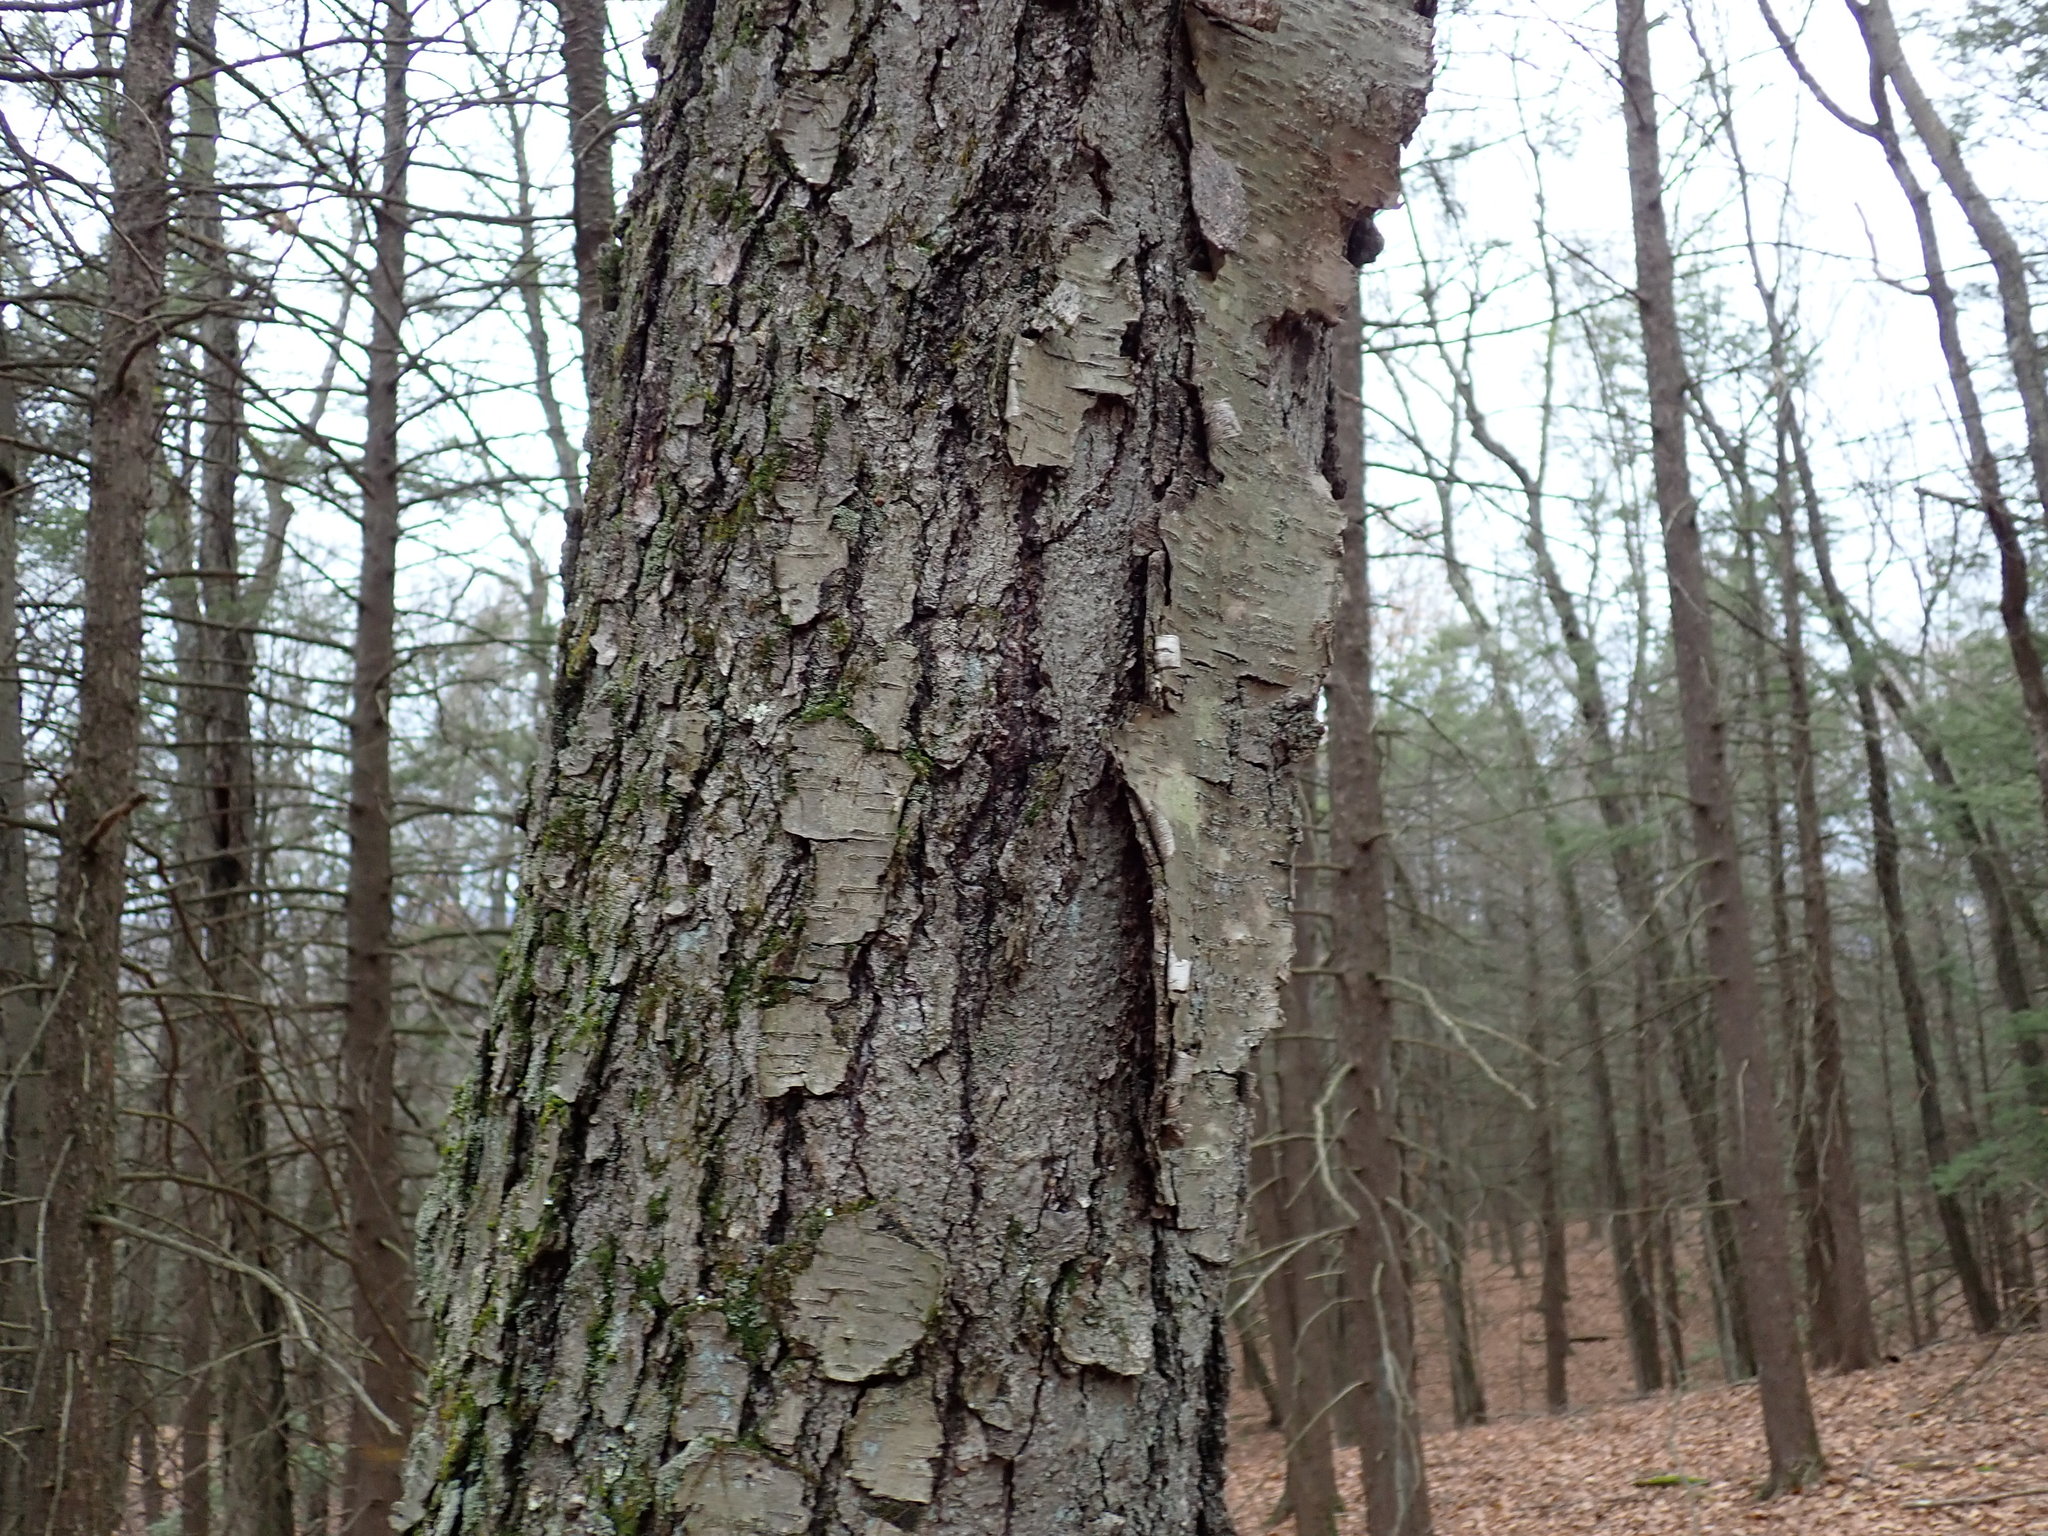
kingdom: Plantae
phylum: Tracheophyta
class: Magnoliopsida
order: Fagales
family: Betulaceae
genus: Betula
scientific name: Betula lenta
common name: Black birch
